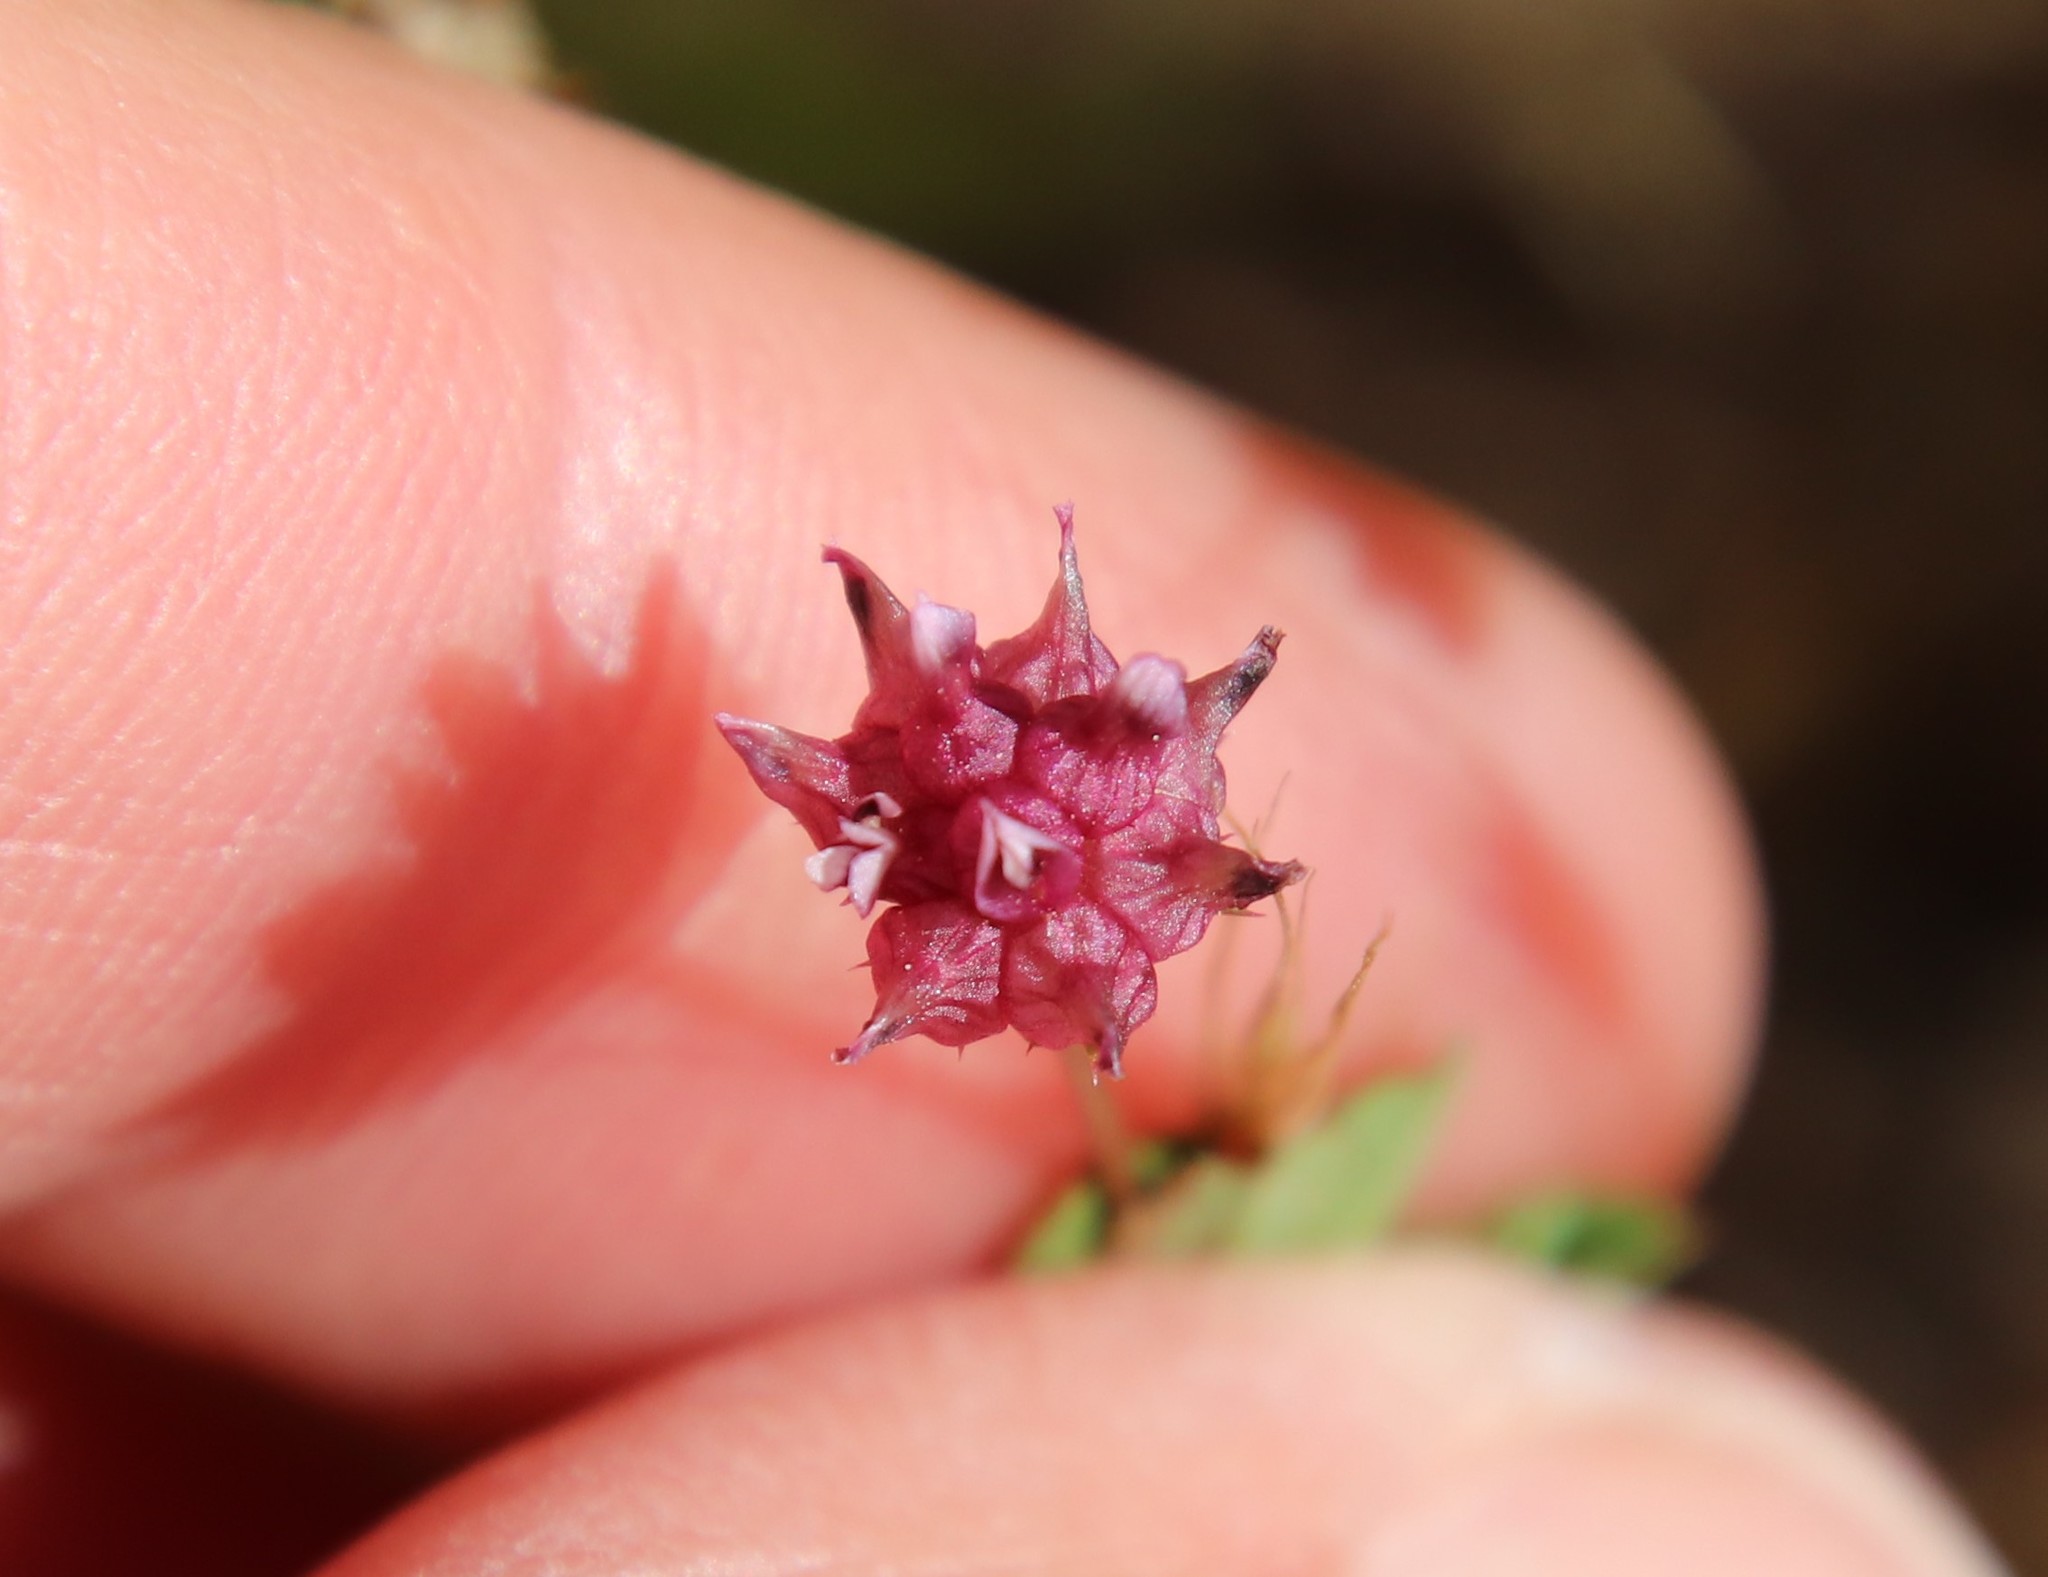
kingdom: Plantae
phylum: Tracheophyta
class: Magnoliopsida
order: Fabales
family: Fabaceae
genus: Trifolium
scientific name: Trifolium depauperatum
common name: Poverty clover
